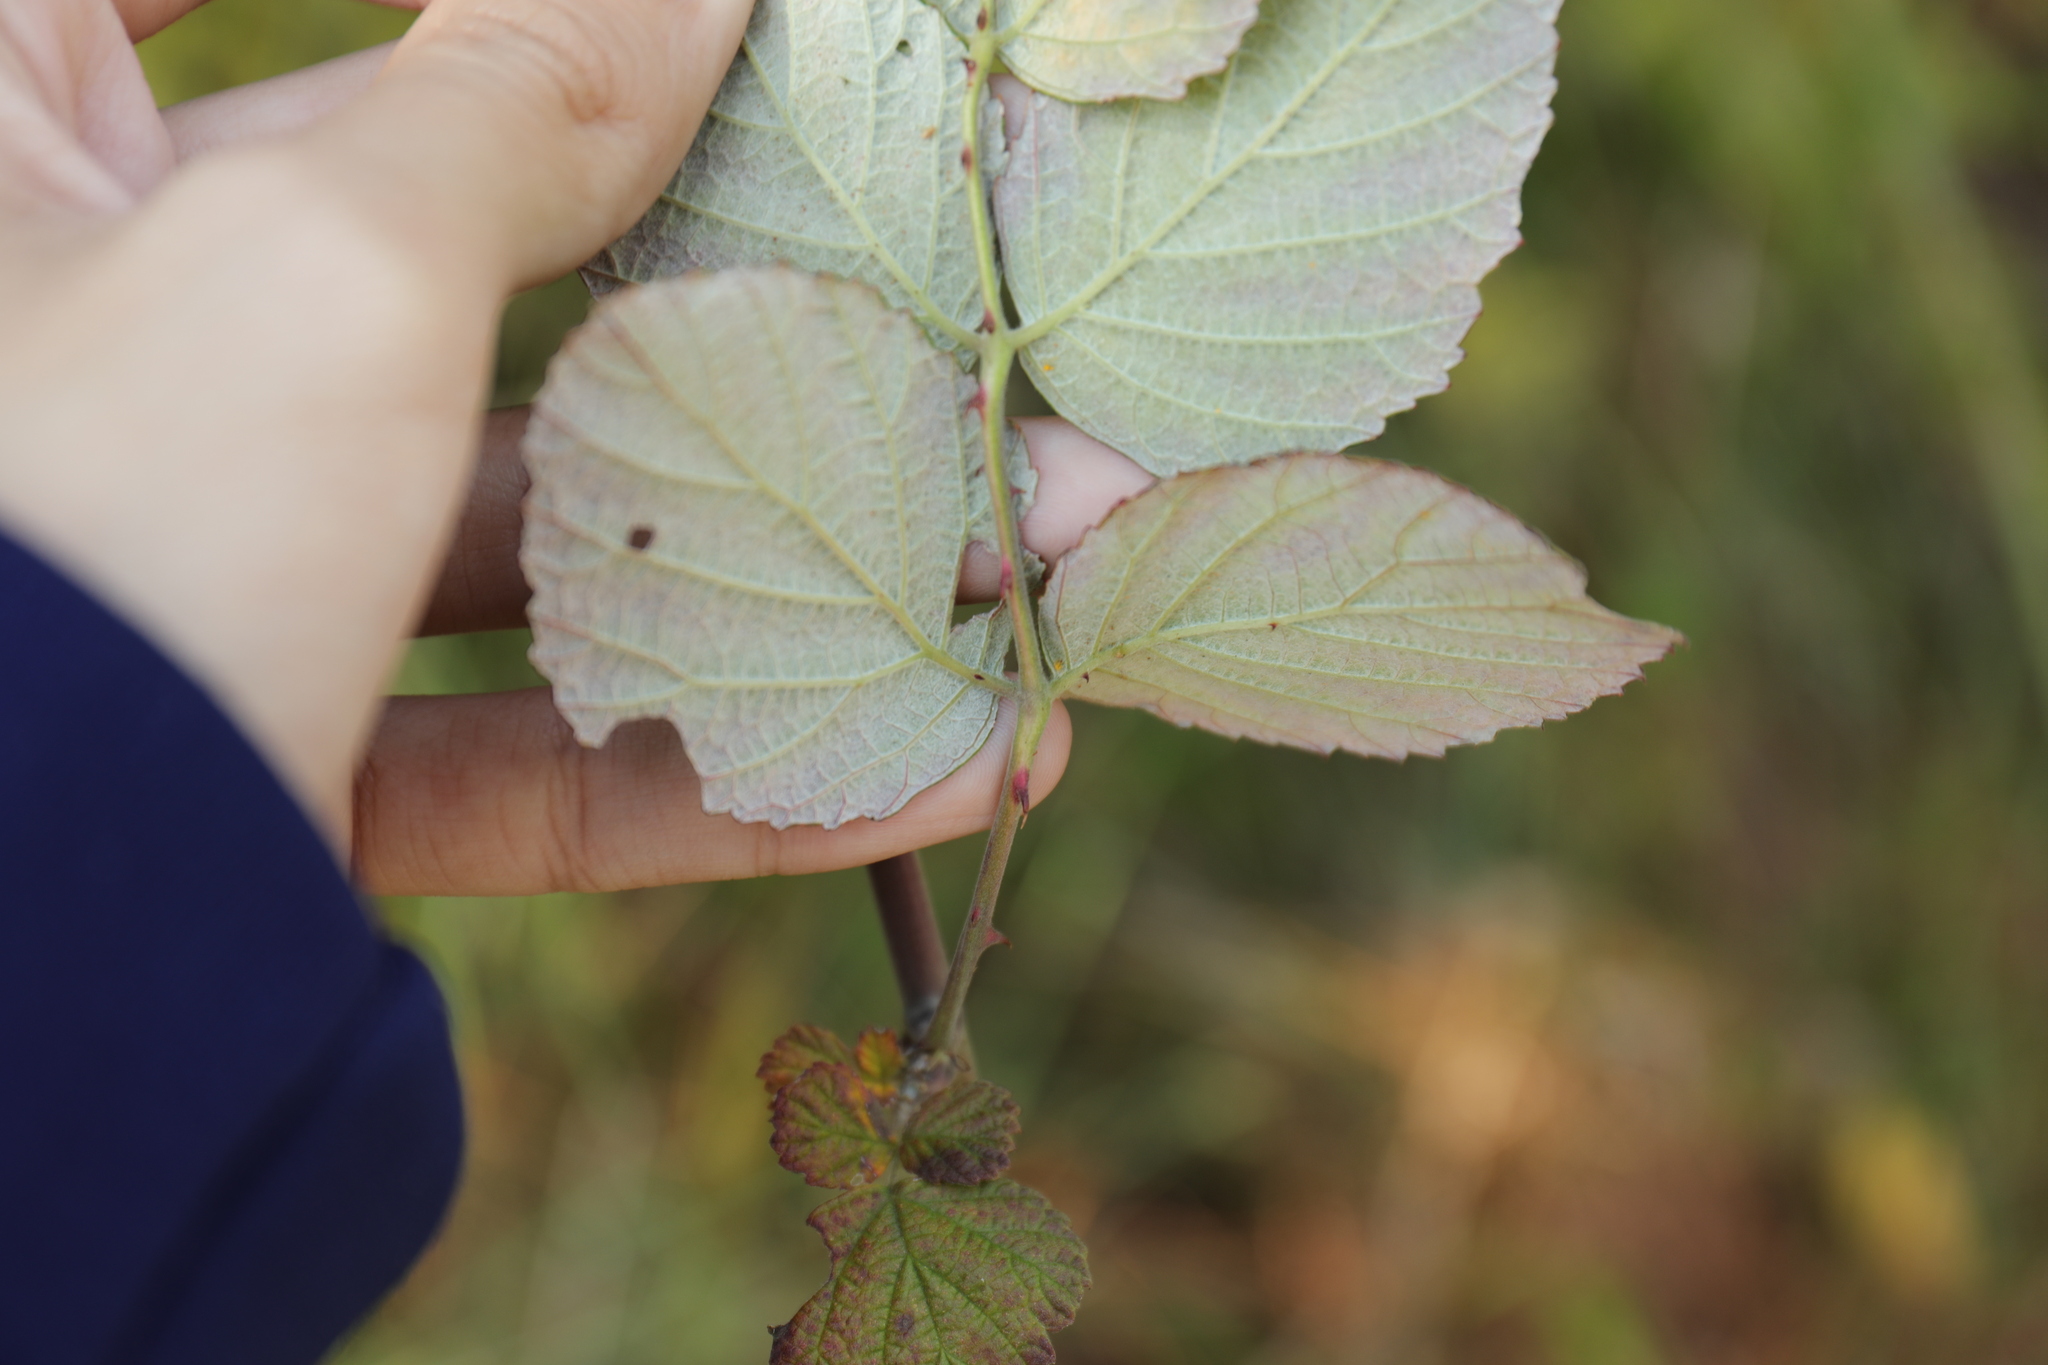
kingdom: Plantae
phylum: Tracheophyta
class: Magnoliopsida
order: Rosales
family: Rosaceae
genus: Rubus
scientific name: Rubus niveus
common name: Snowpeaks raspberry
